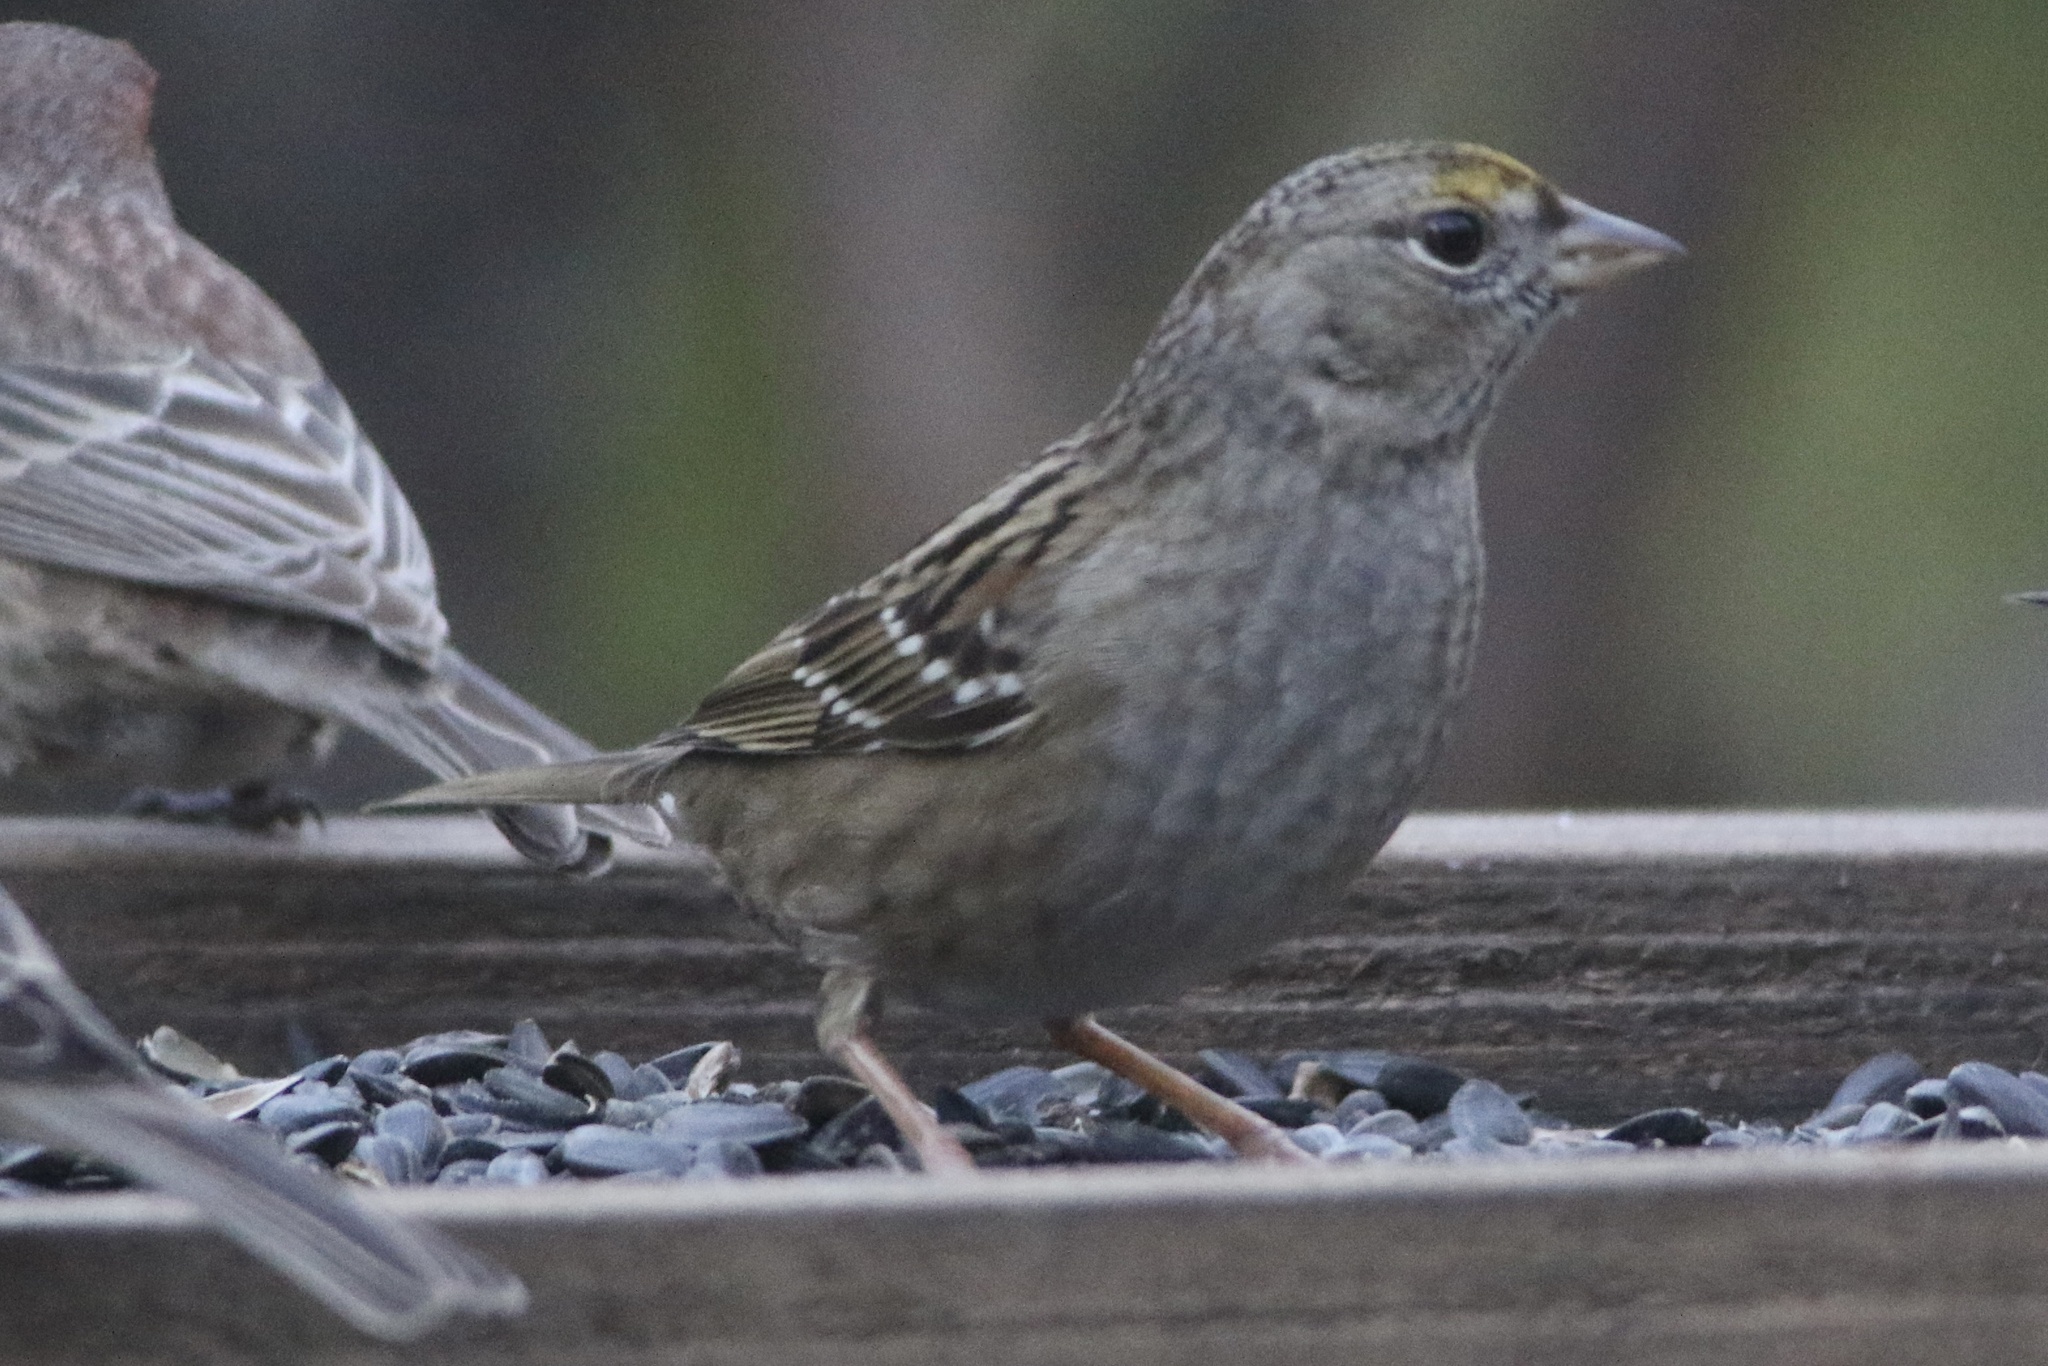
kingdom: Animalia
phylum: Chordata
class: Aves
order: Passeriformes
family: Passerellidae
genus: Zonotrichia
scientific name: Zonotrichia atricapilla
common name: Golden-crowned sparrow
